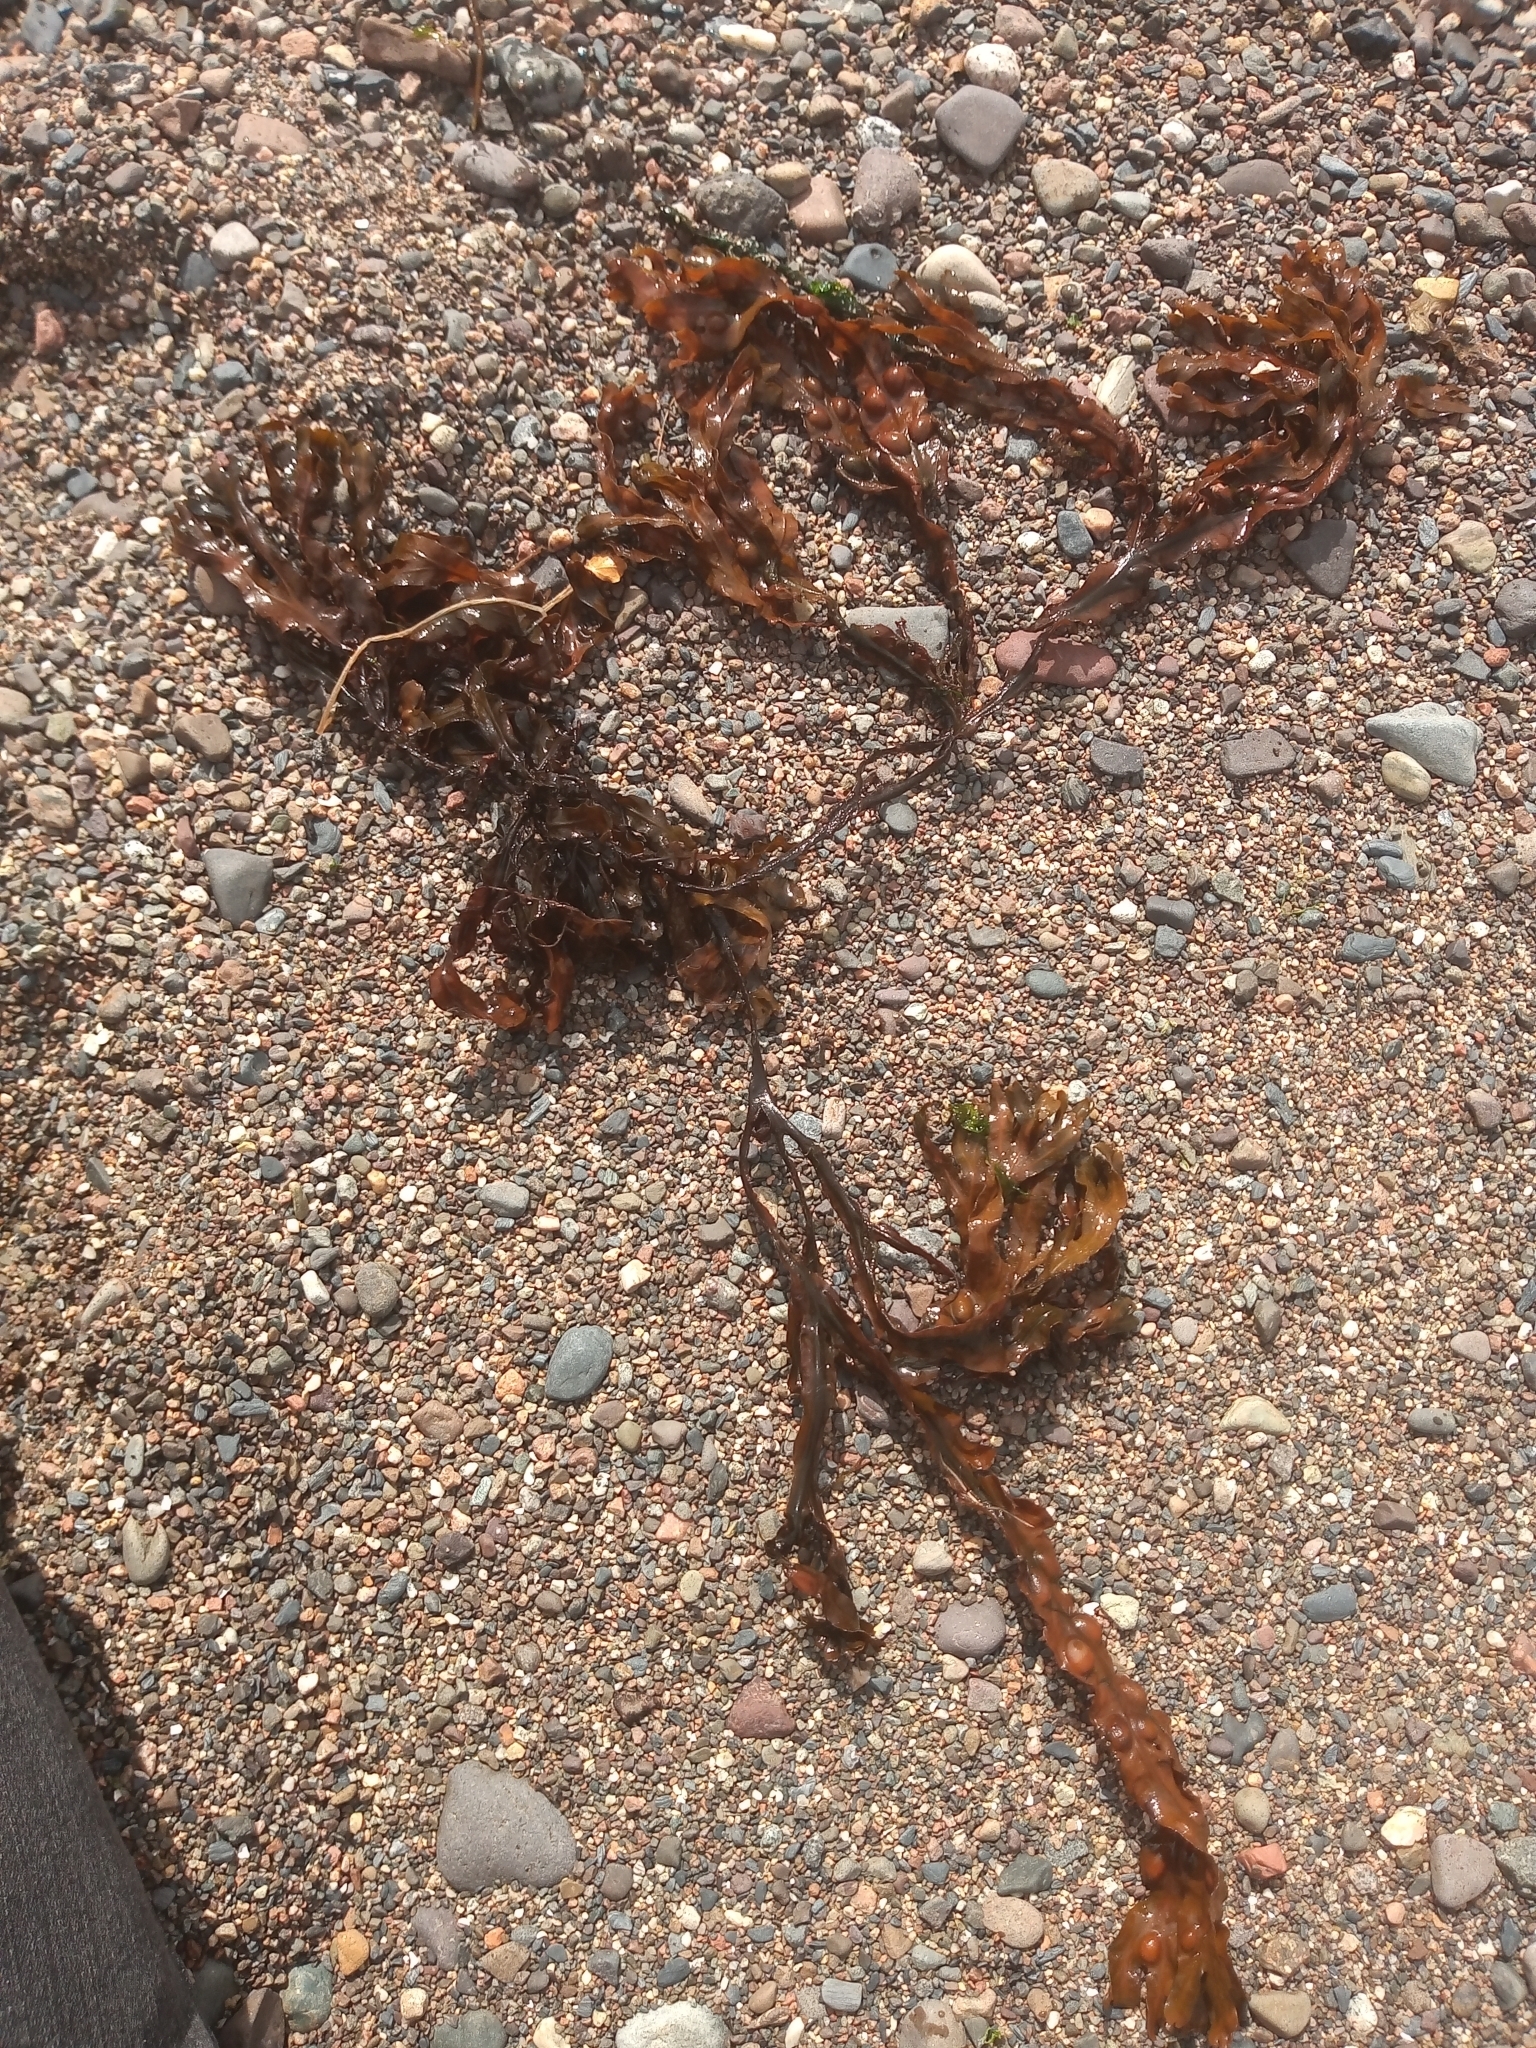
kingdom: Chromista
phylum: Ochrophyta
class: Phaeophyceae
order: Fucales
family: Fucaceae
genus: Fucus
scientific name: Fucus vesiculosus
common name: Bladder wrack
